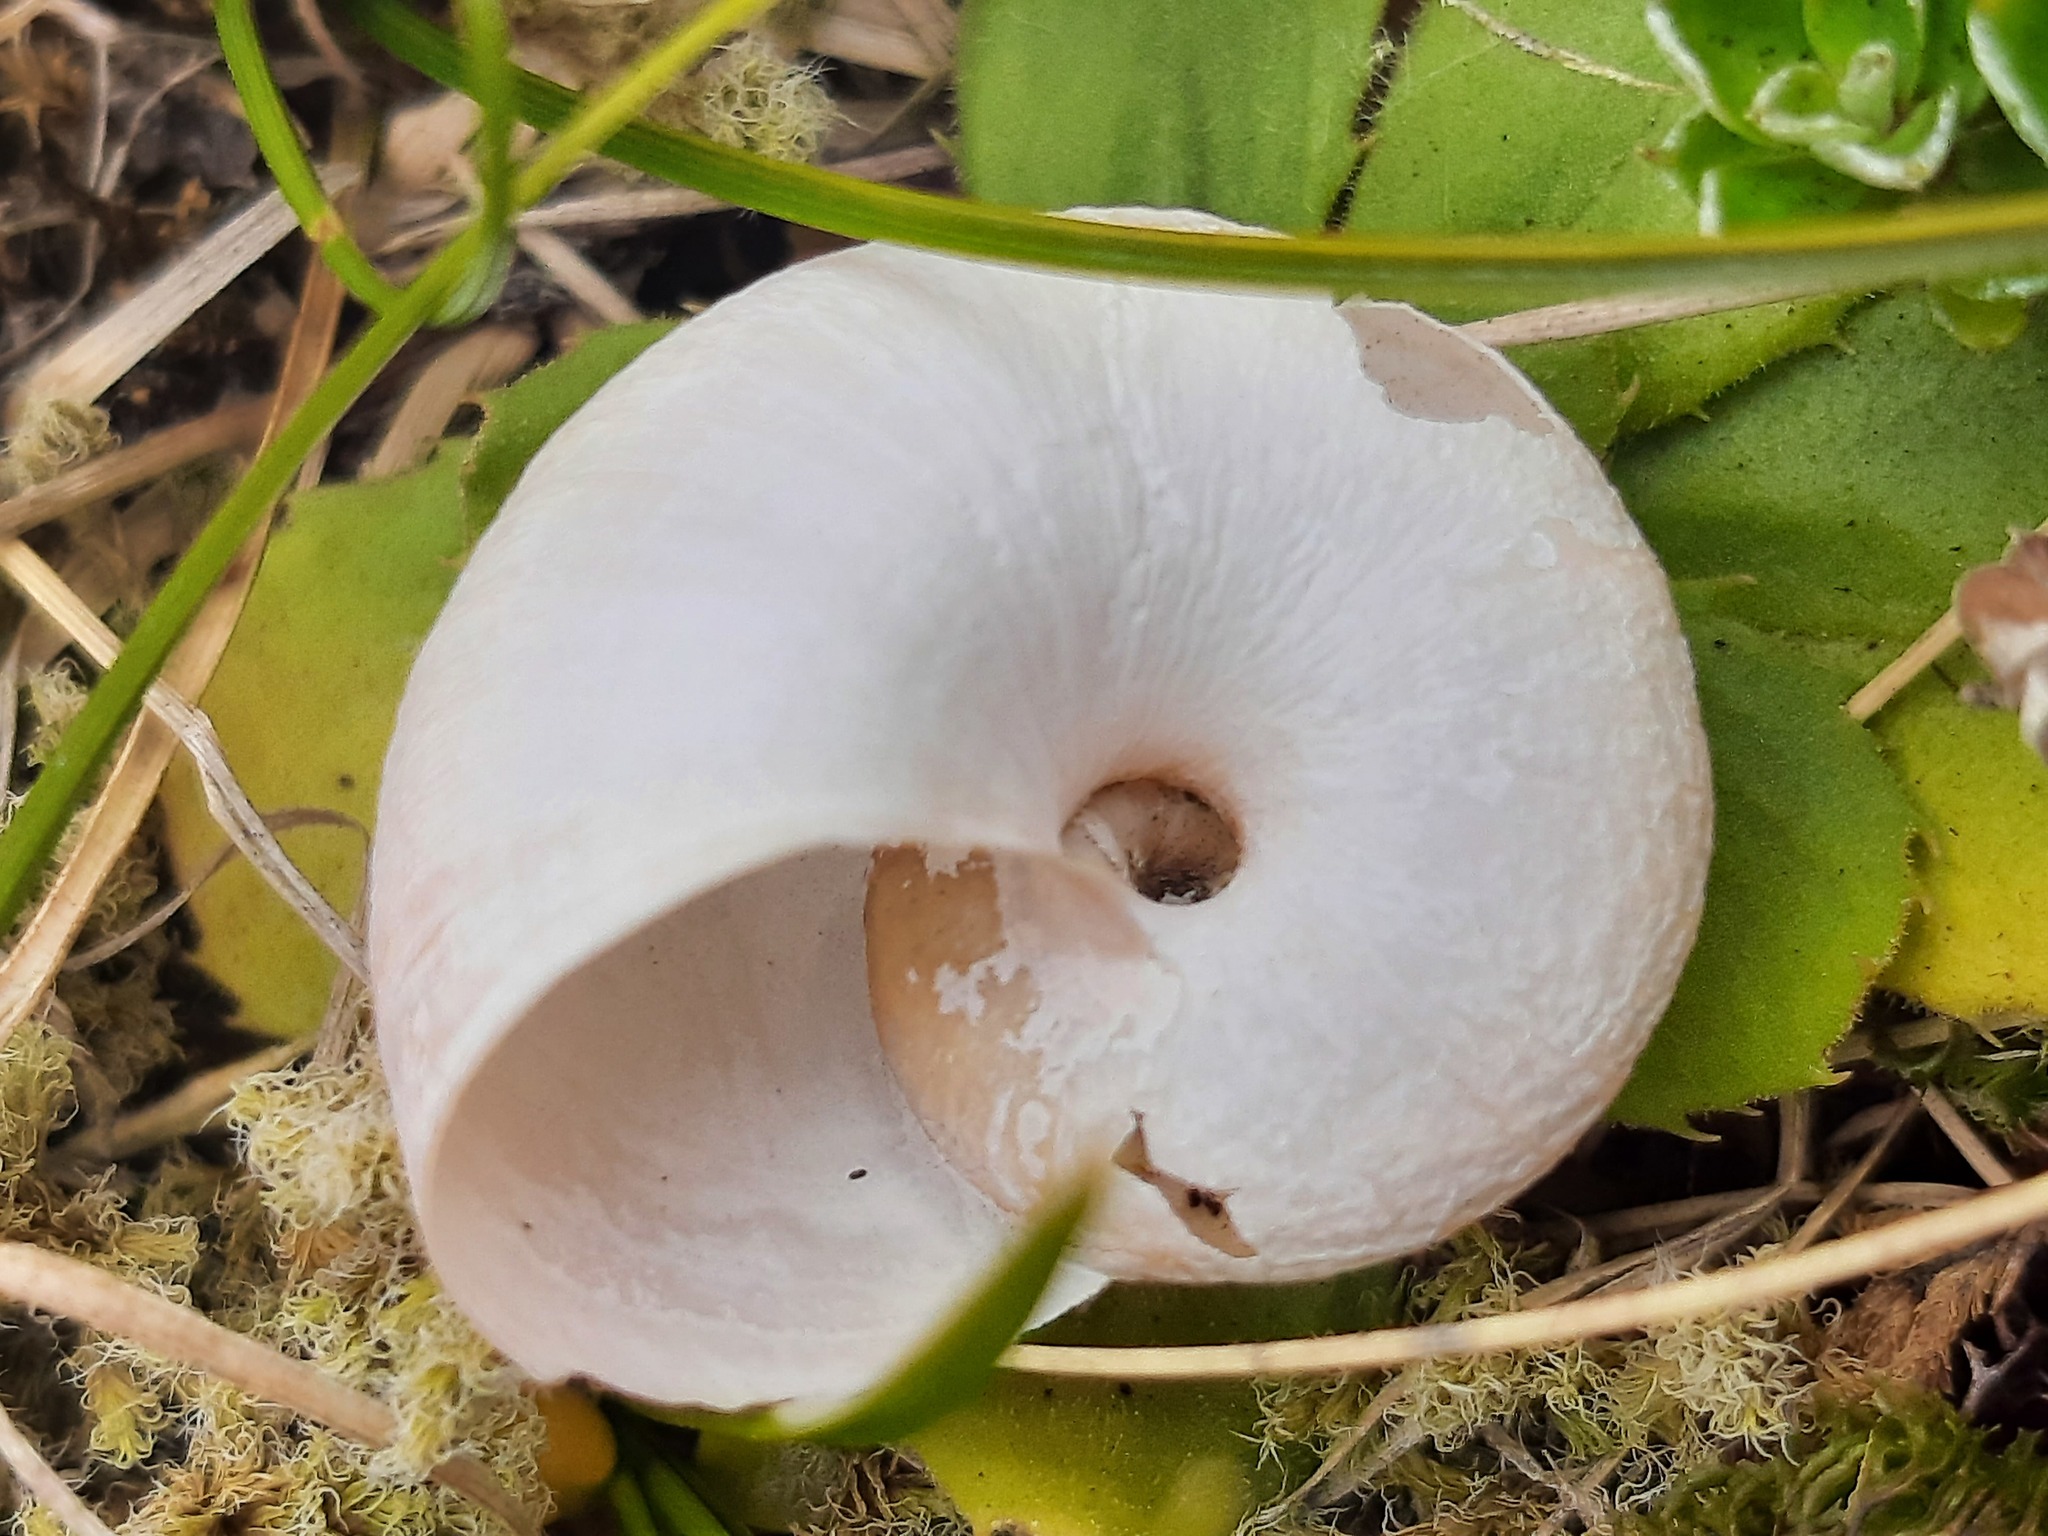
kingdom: Animalia
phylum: Mollusca
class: Gastropoda
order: Stylommatophora
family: Rhytididae
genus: Rhytida
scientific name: Rhytida greenwoodi
